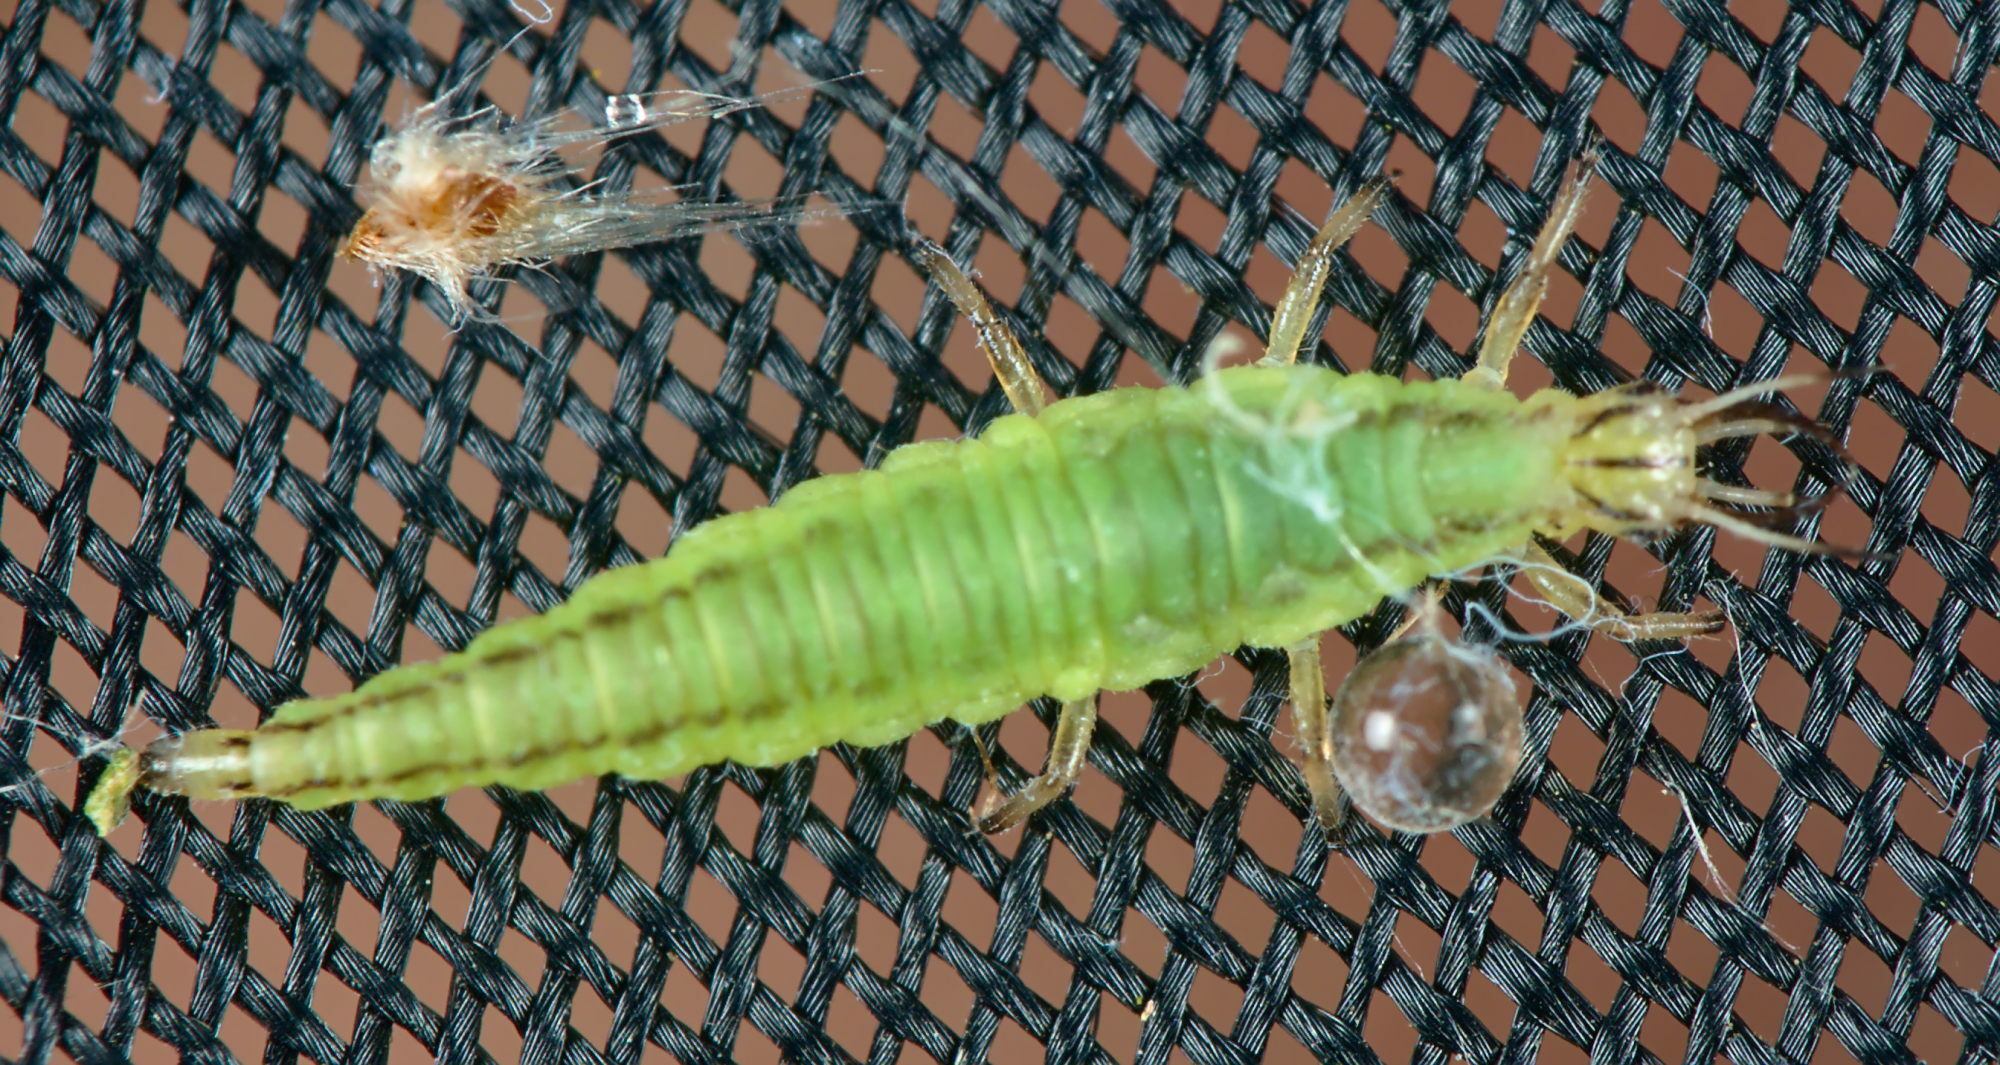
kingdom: Animalia
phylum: Arthropoda
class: Insecta
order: Neuroptera
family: Chrysopidae
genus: Hypochrysa
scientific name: Hypochrysa elegans
